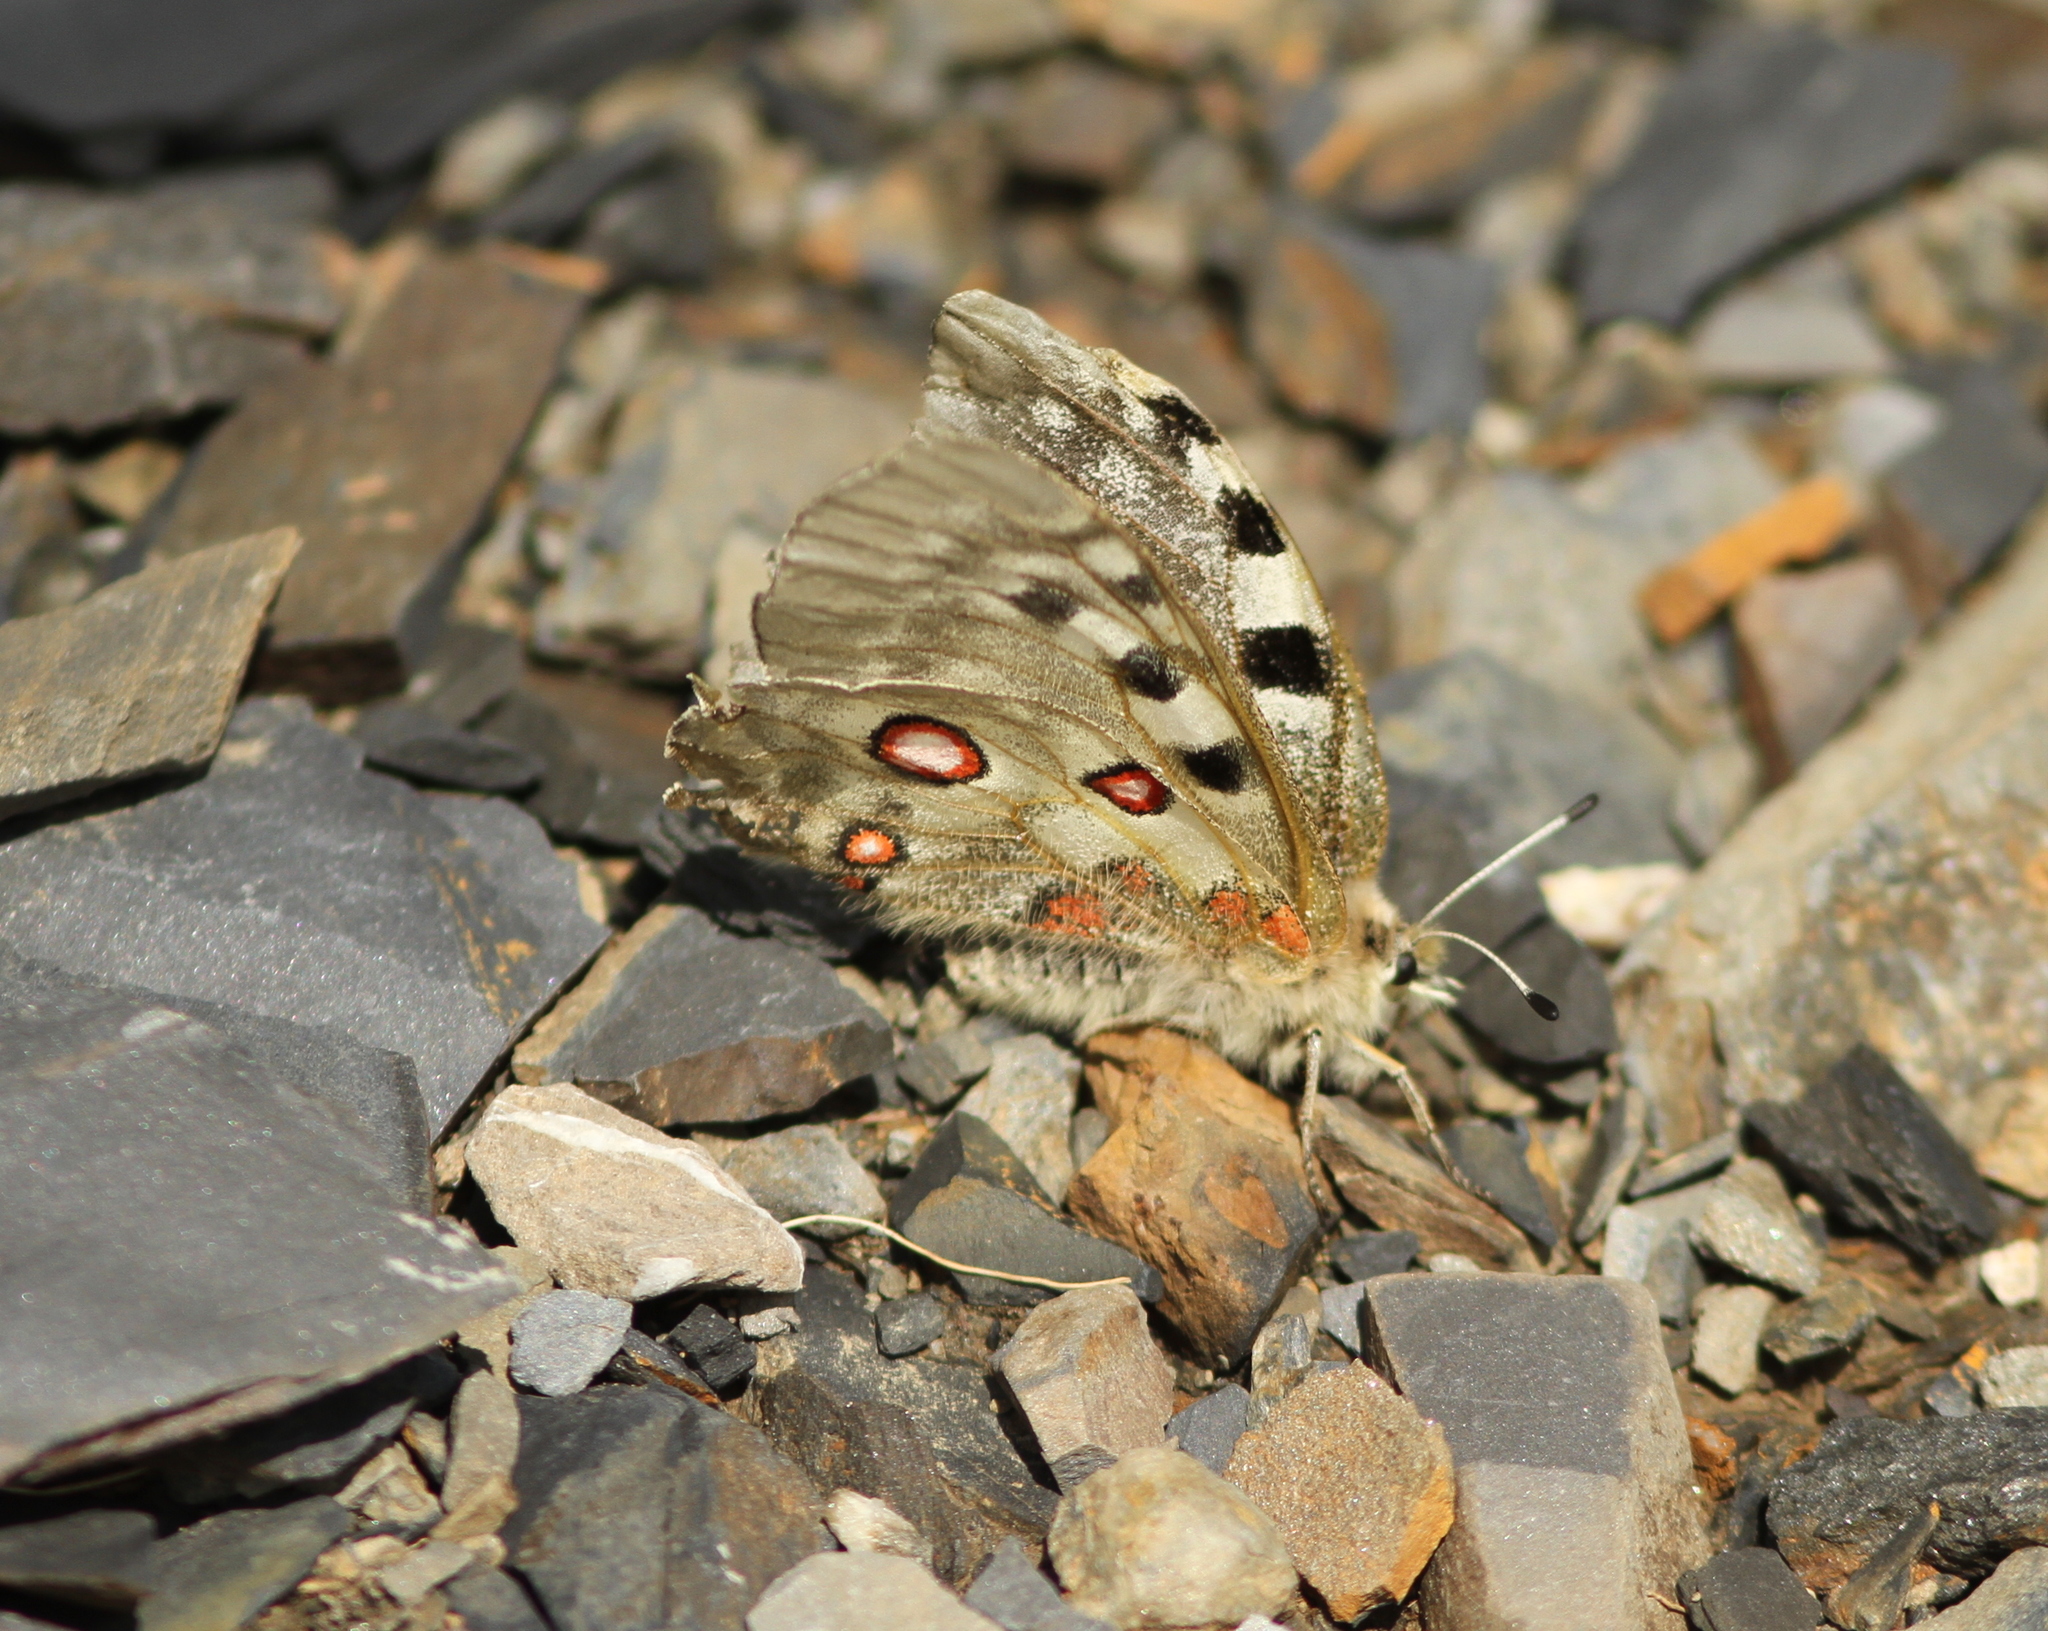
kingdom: Animalia
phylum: Arthropoda
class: Insecta
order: Lepidoptera
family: Papilionidae
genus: Parnassius
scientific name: Parnassius apollo
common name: Apollo
